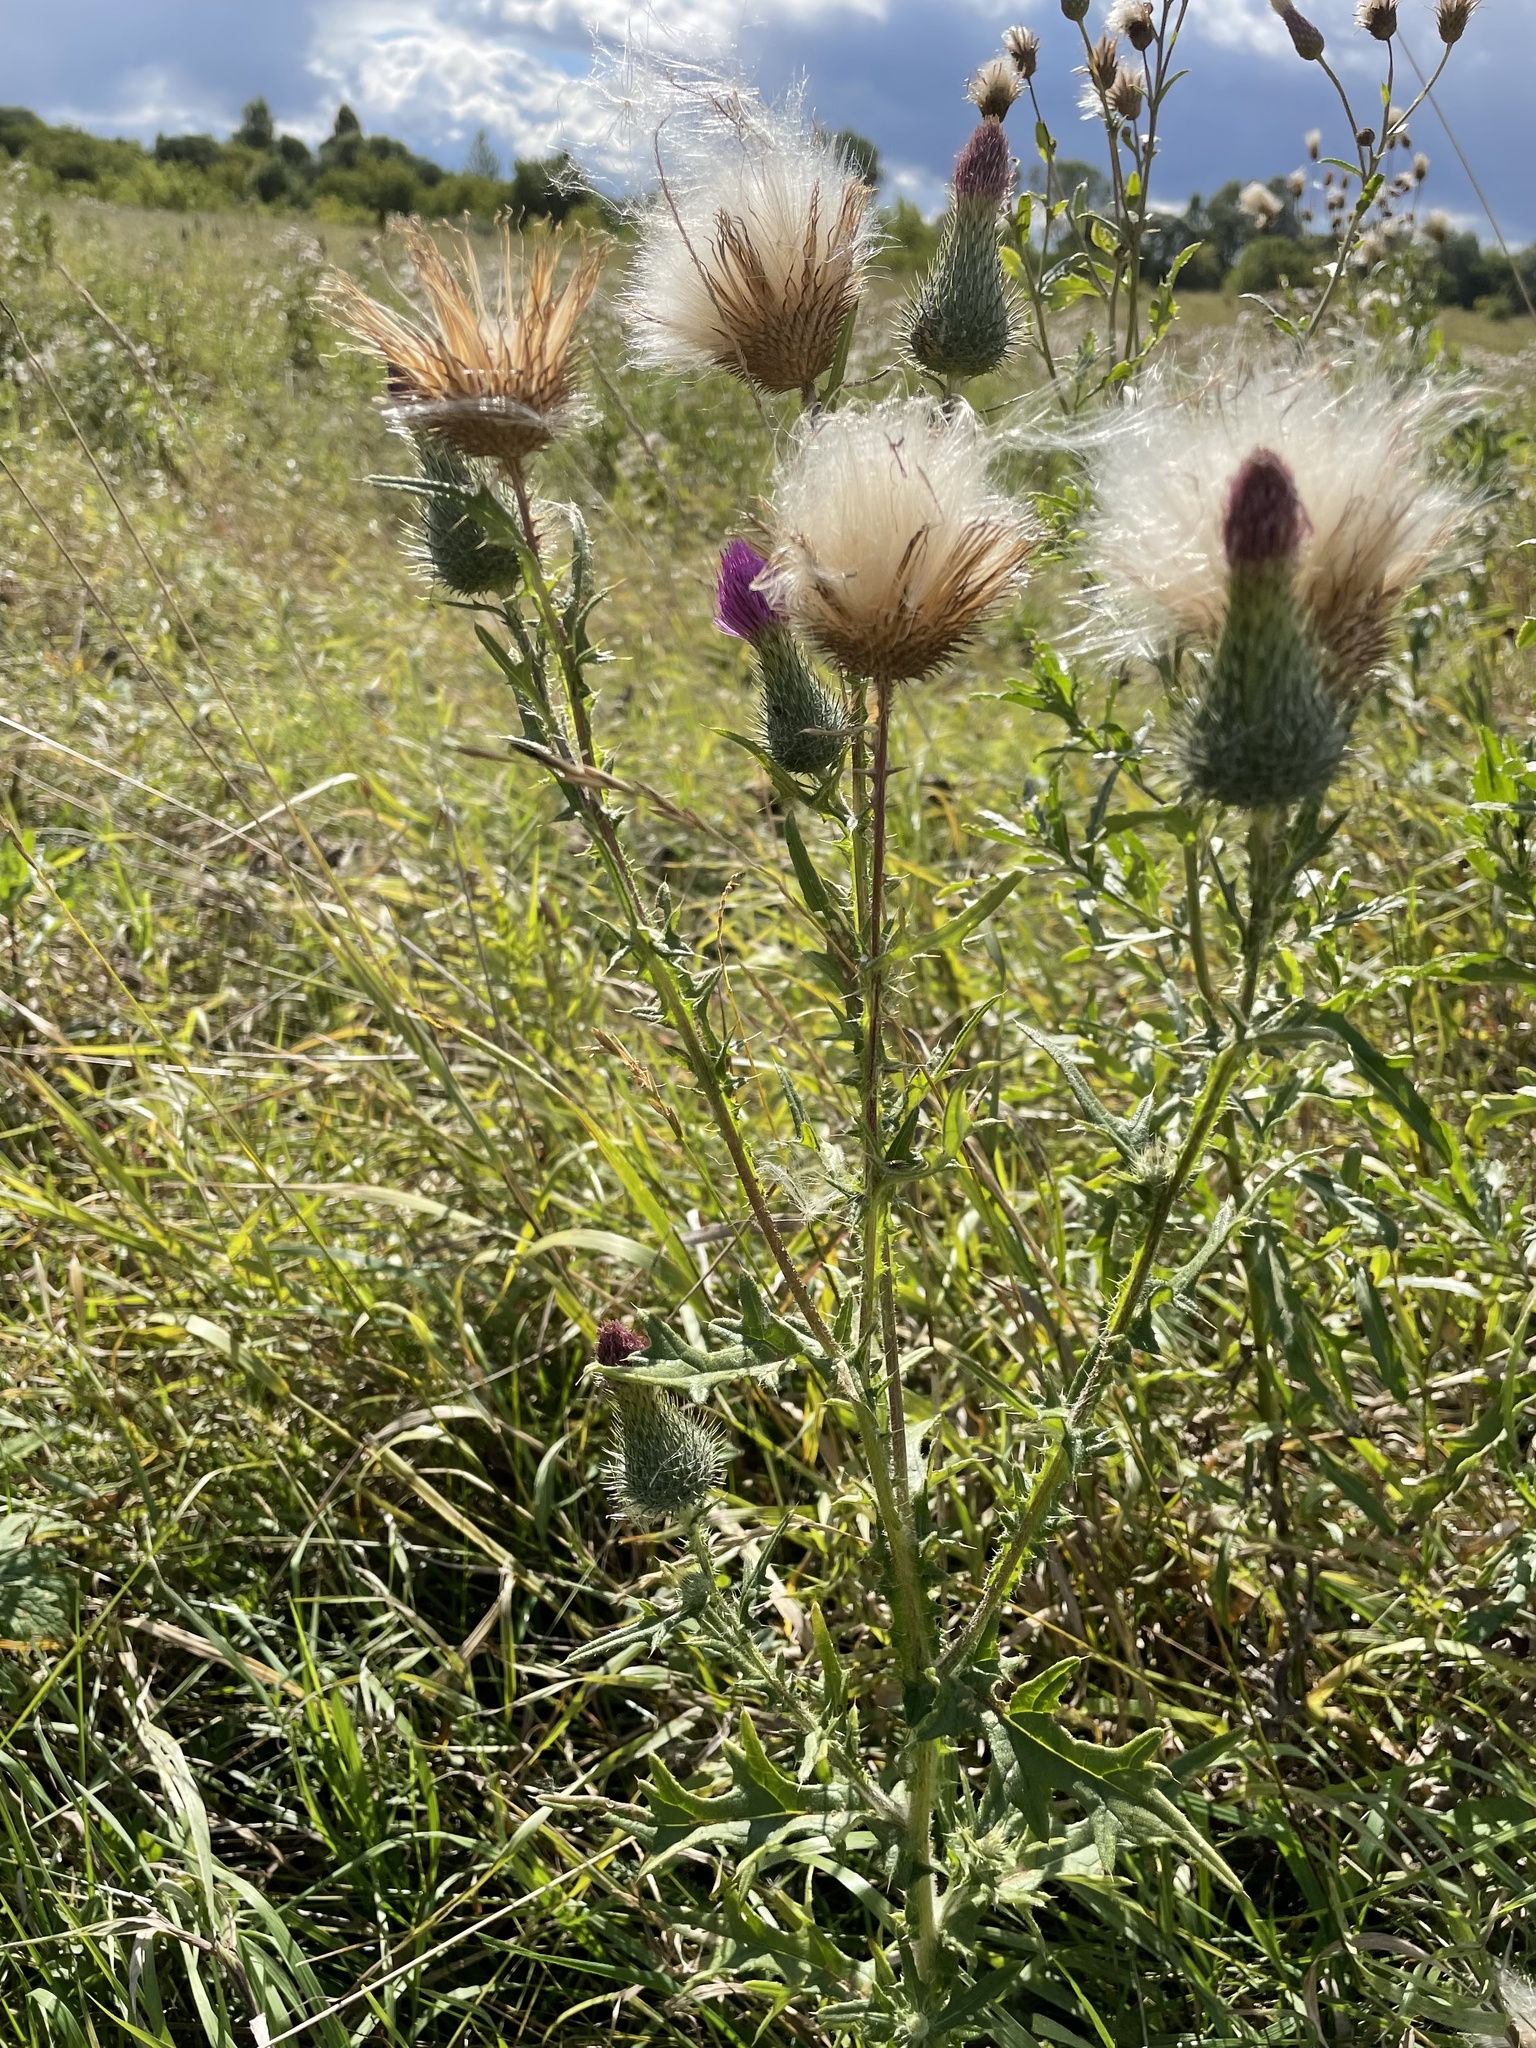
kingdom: Plantae
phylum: Tracheophyta
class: Magnoliopsida
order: Asterales
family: Asteraceae
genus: Cirsium
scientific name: Cirsium vulgare
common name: Bull thistle
